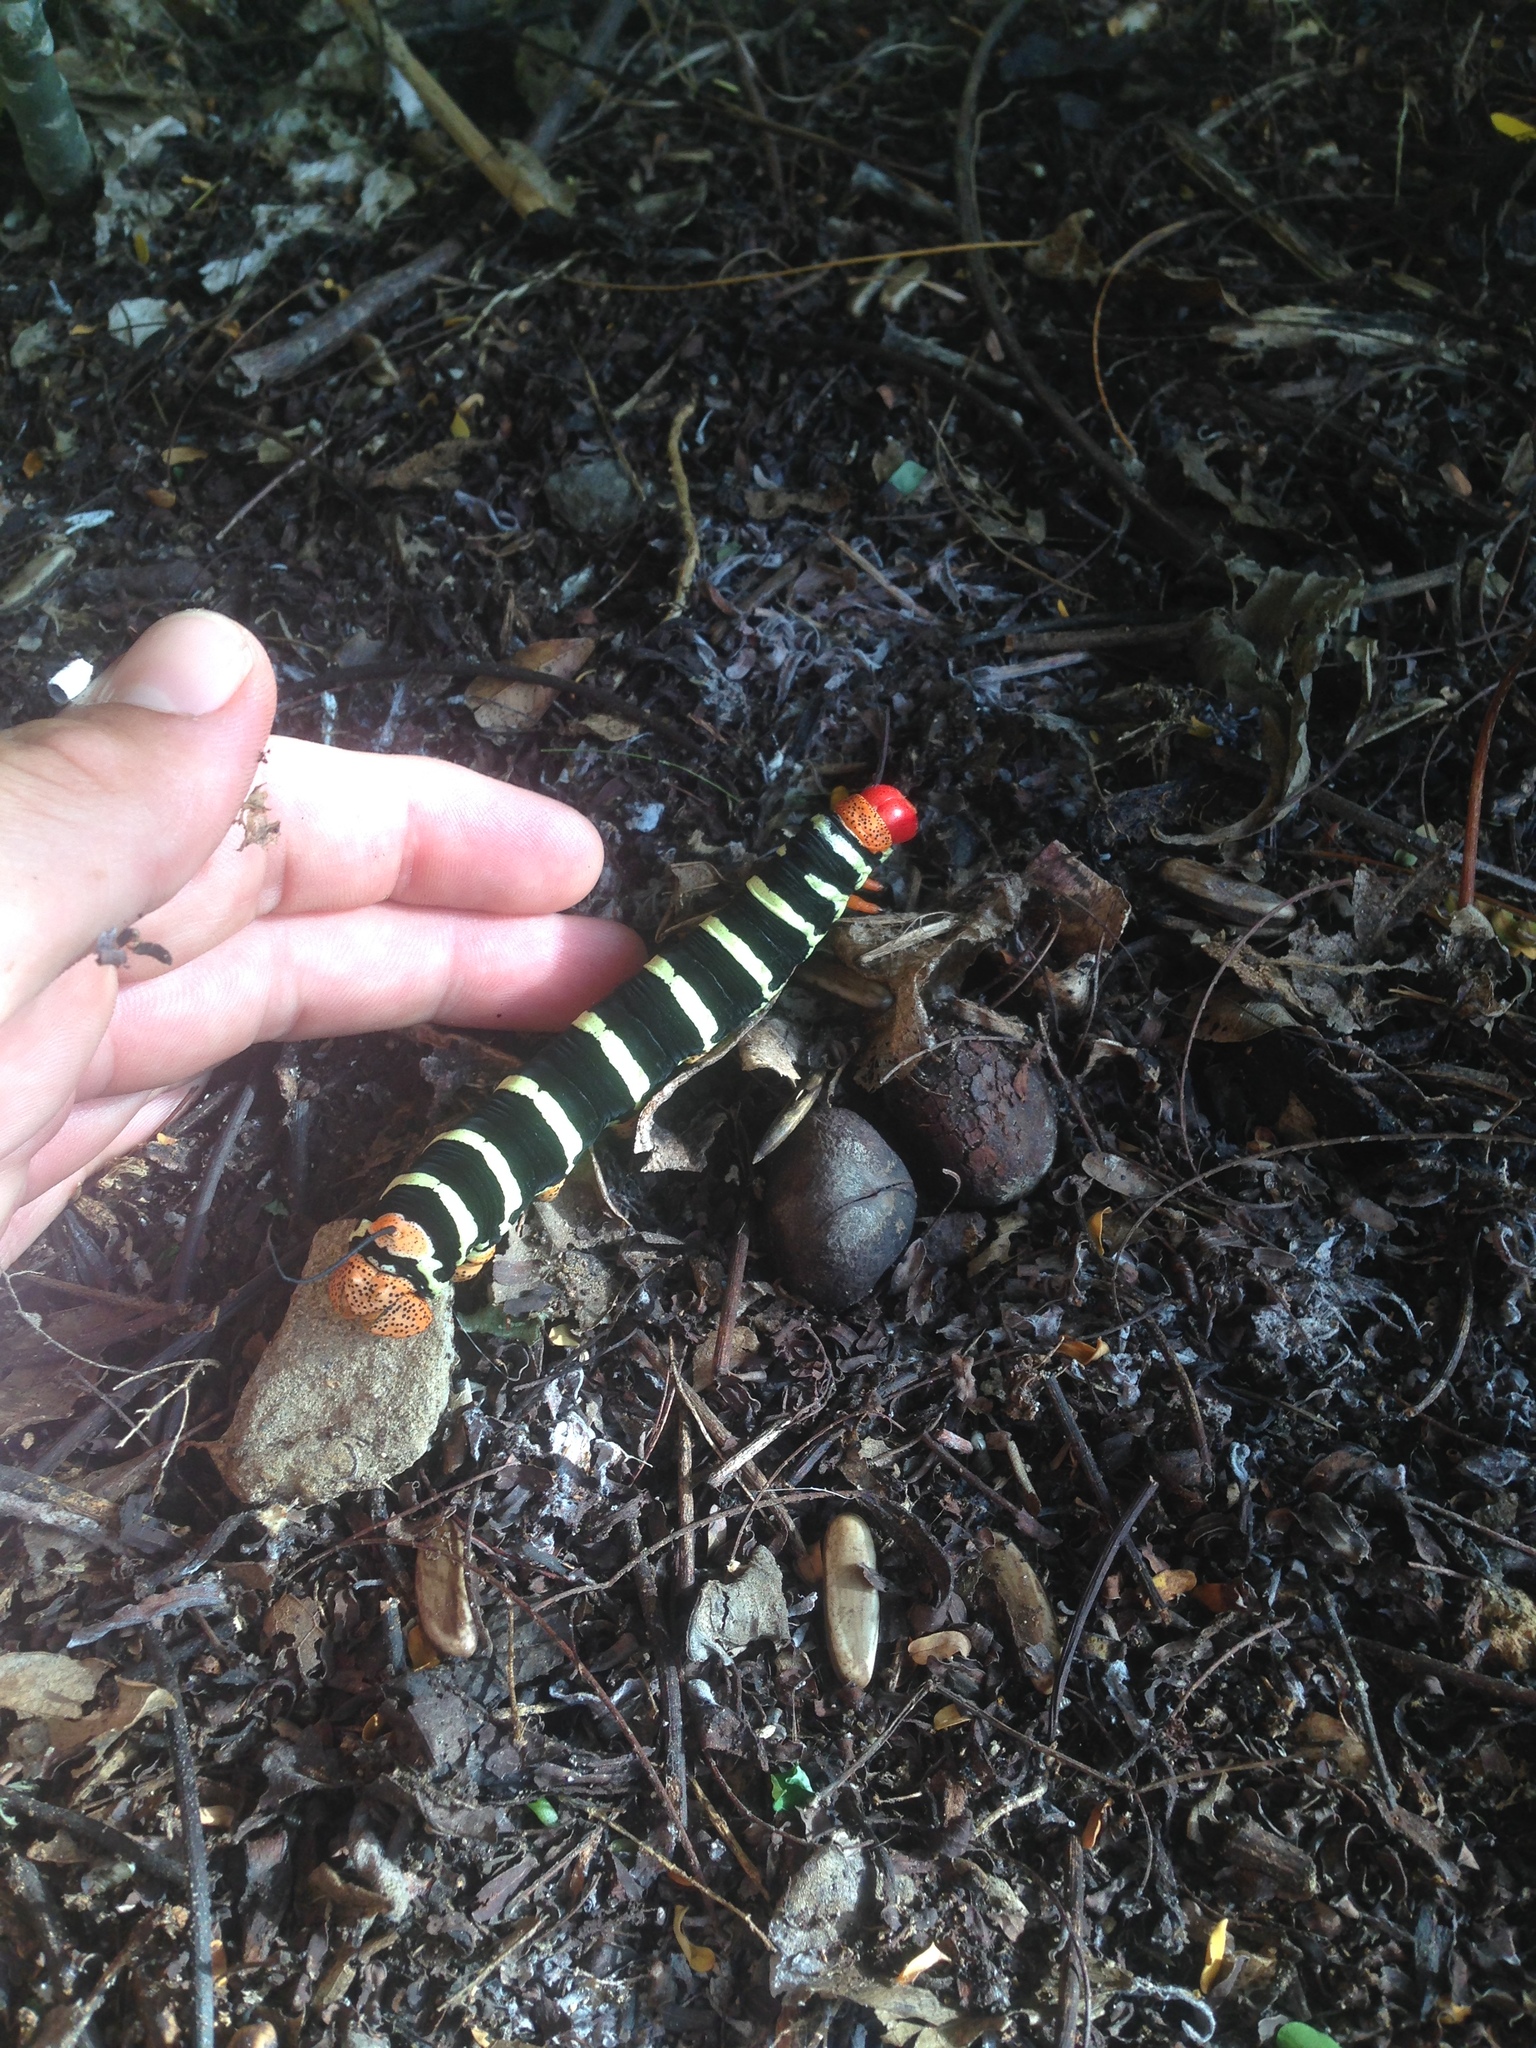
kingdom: Animalia
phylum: Arthropoda
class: Insecta
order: Lepidoptera
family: Sphingidae
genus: Pseudosphinx
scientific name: Pseudosphinx tetrio
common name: Tetrio sphinx
